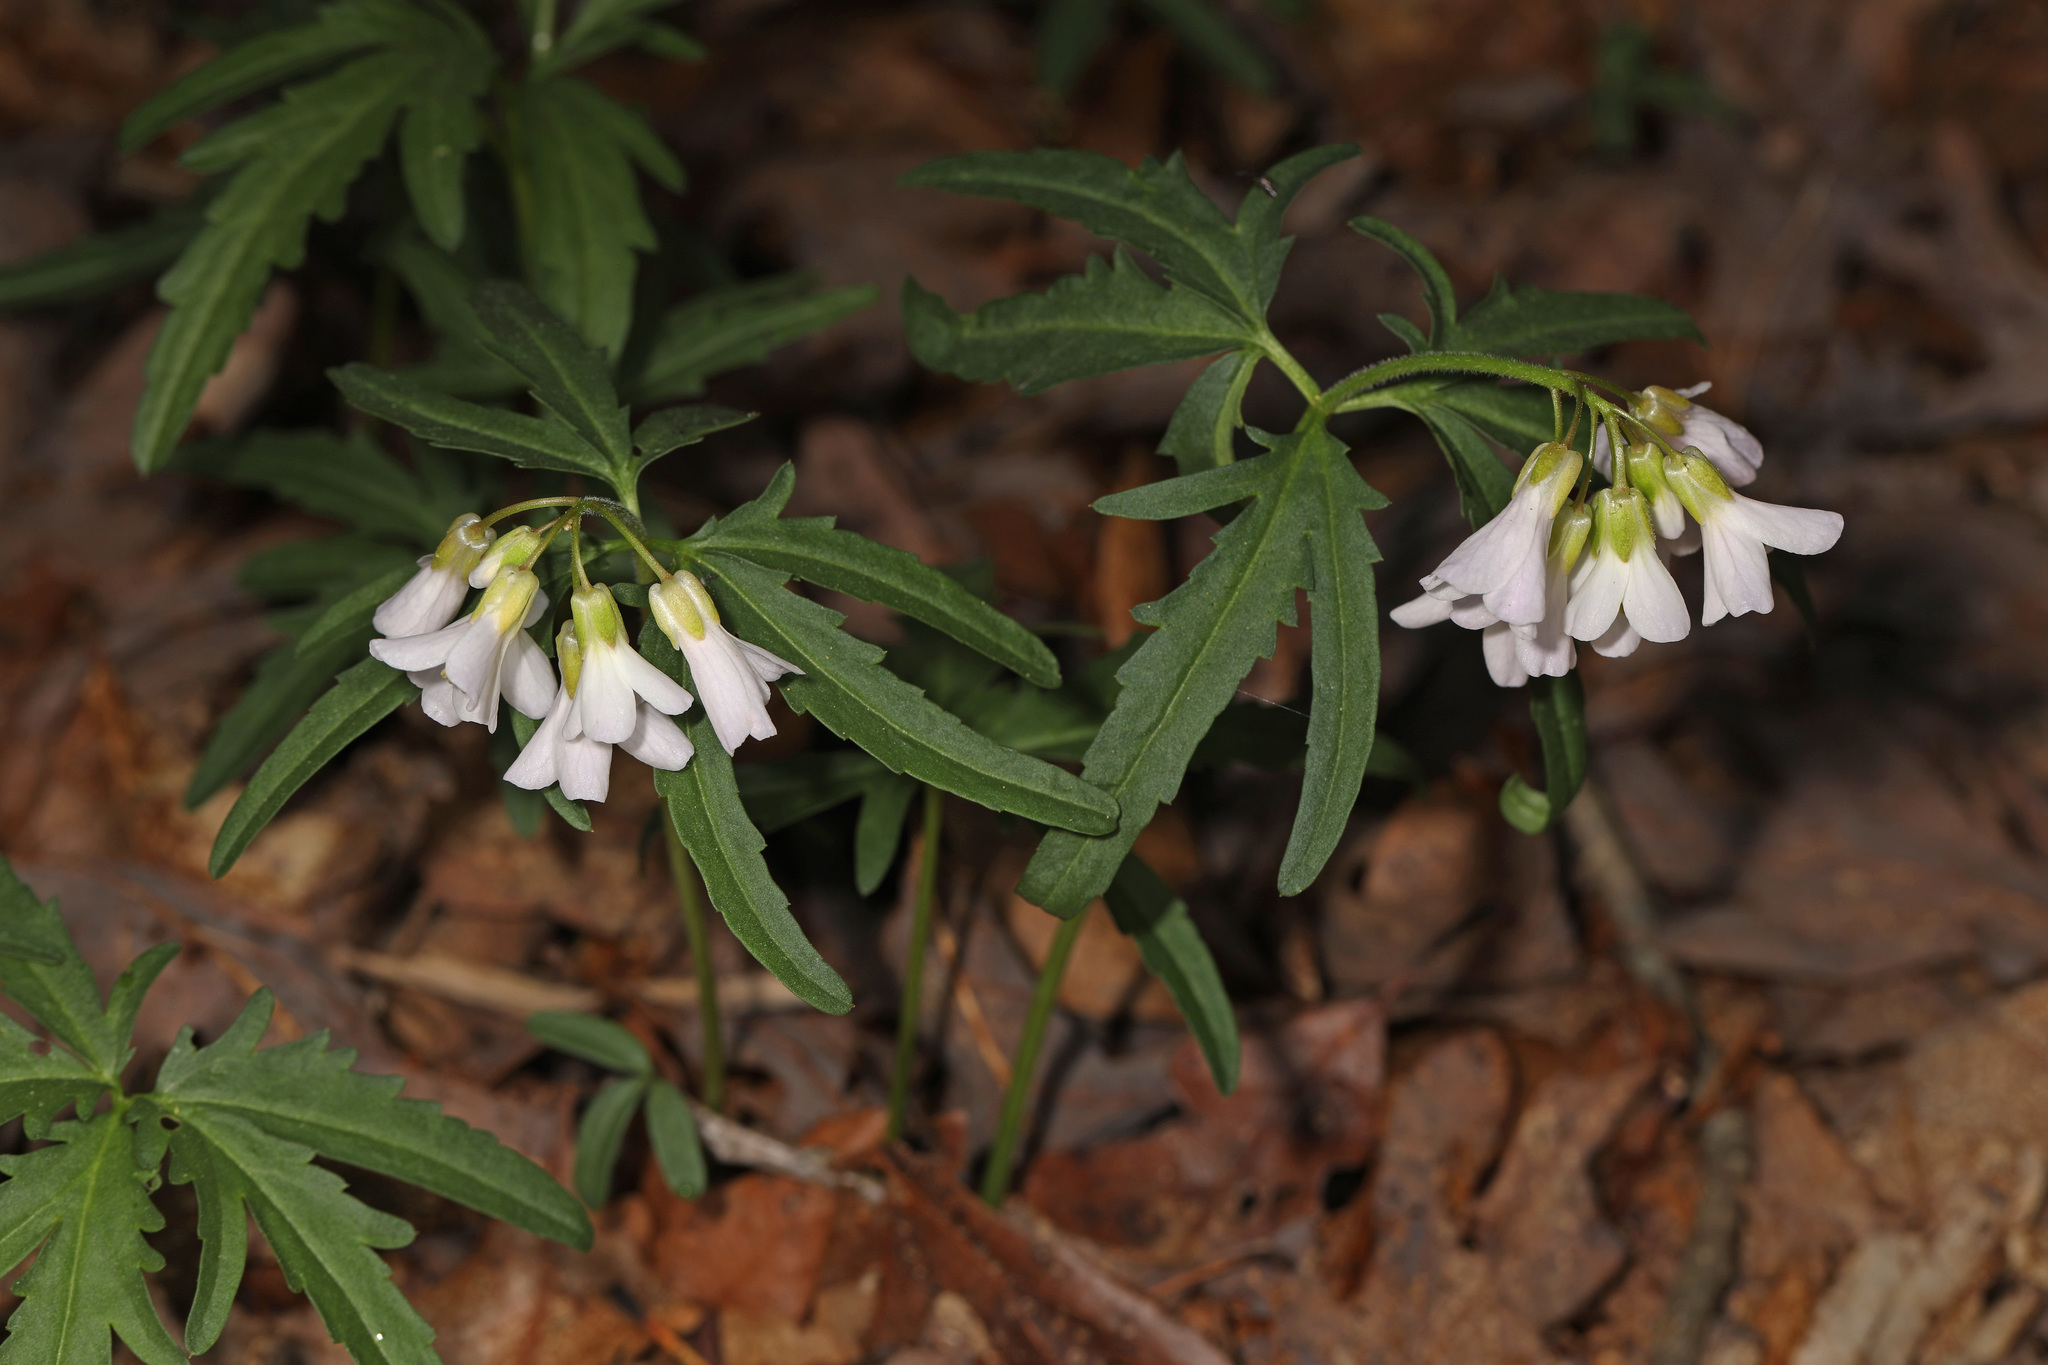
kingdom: Plantae
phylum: Tracheophyta
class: Magnoliopsida
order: Brassicales
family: Brassicaceae
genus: Cardamine
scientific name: Cardamine concatenata
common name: Cut-leaf toothcup
